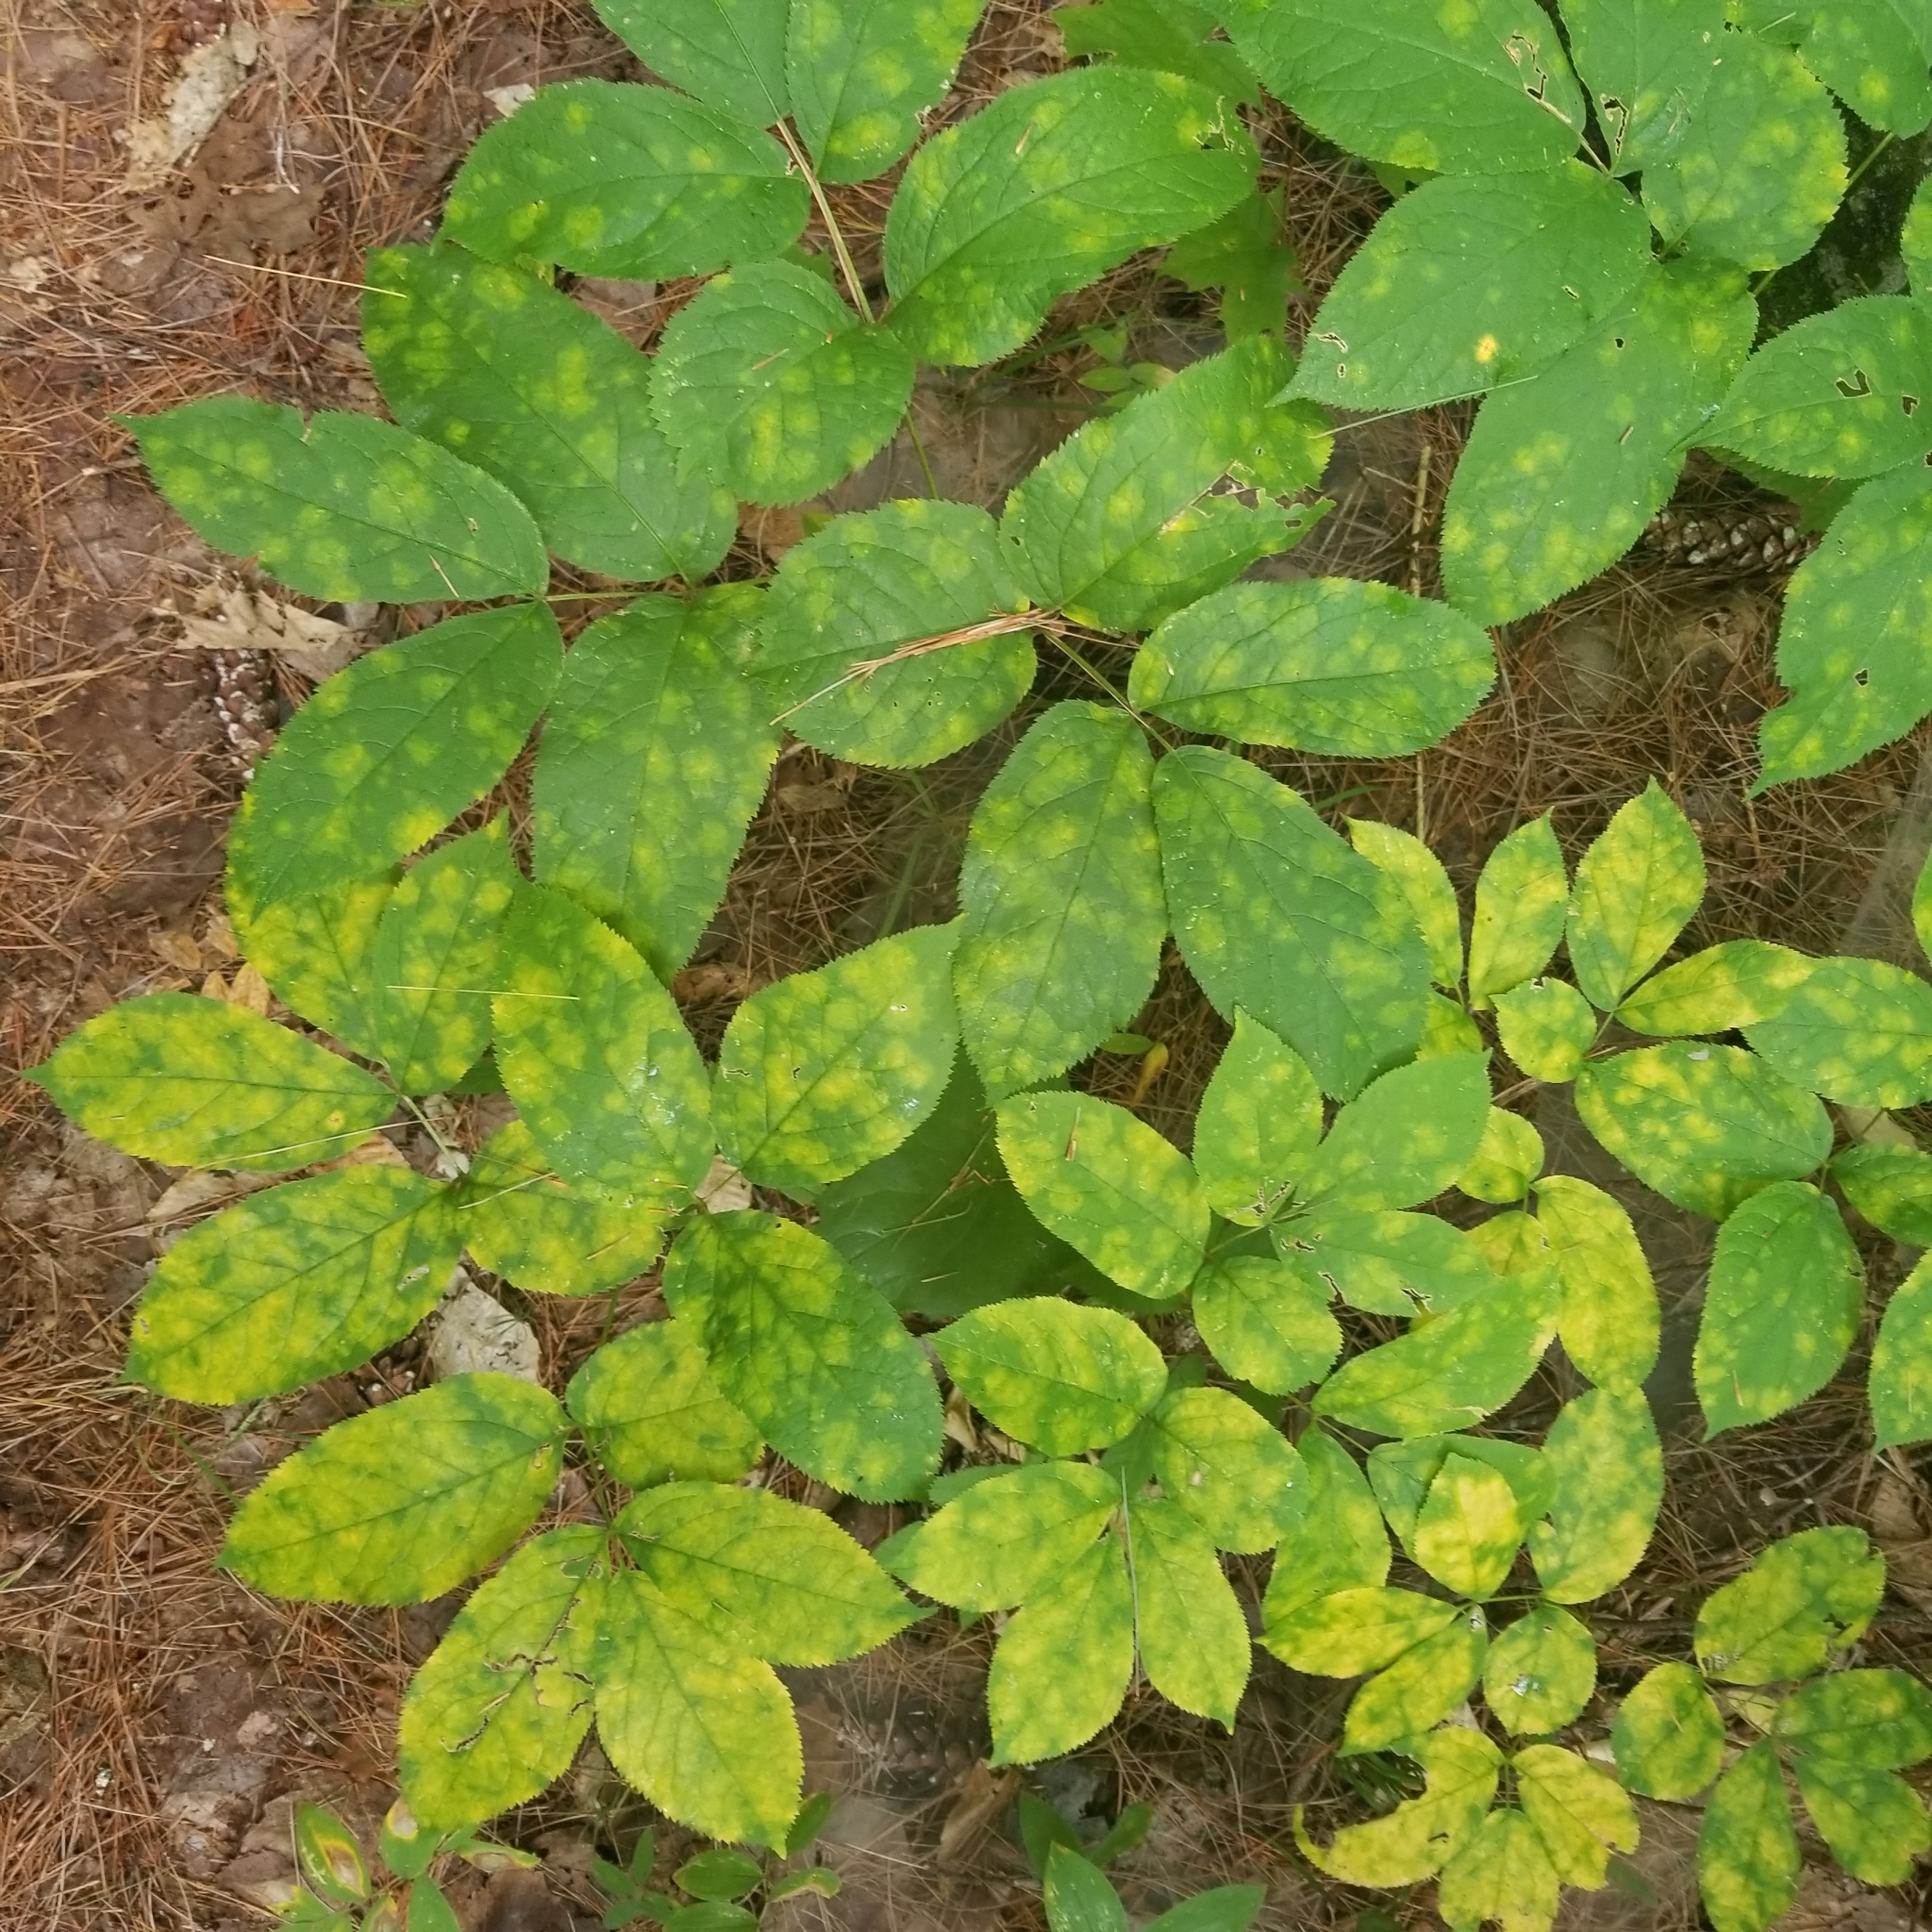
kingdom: Plantae
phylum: Tracheophyta
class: Magnoliopsida
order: Apiales
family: Araliaceae
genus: Aralia
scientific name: Aralia nudicaulis
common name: Wild sarsaparilla
